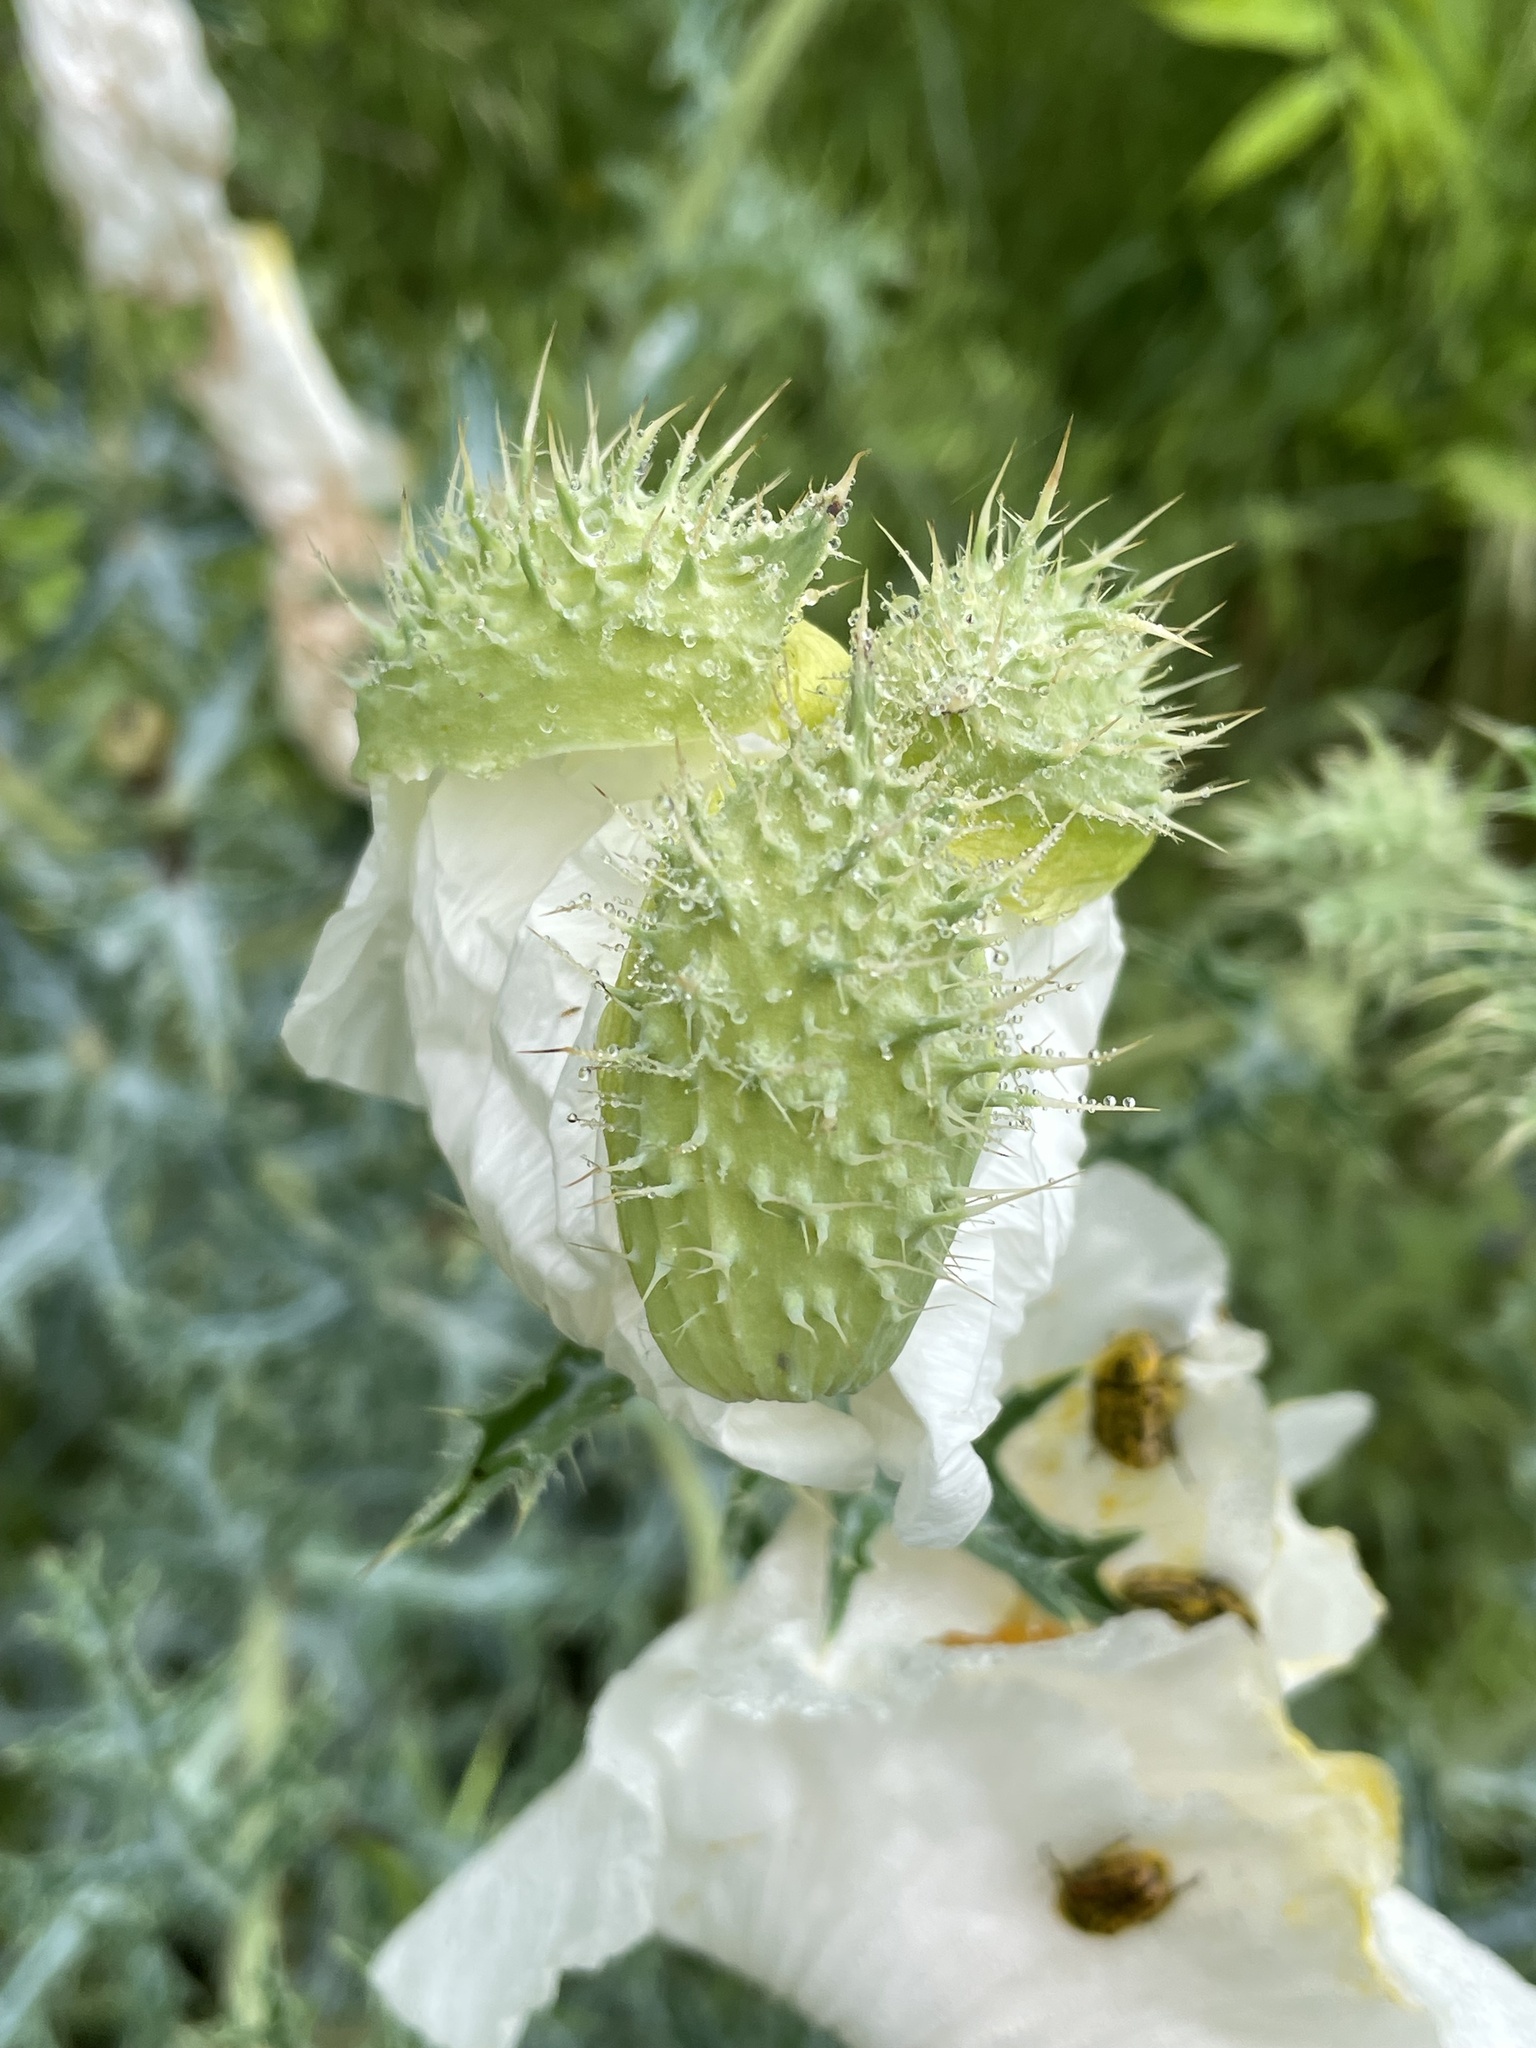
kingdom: Plantae
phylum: Tracheophyta
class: Magnoliopsida
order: Ranunculales
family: Papaveraceae
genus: Argemone
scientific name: Argemone aurantiaca
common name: Texas prickly-poppy
